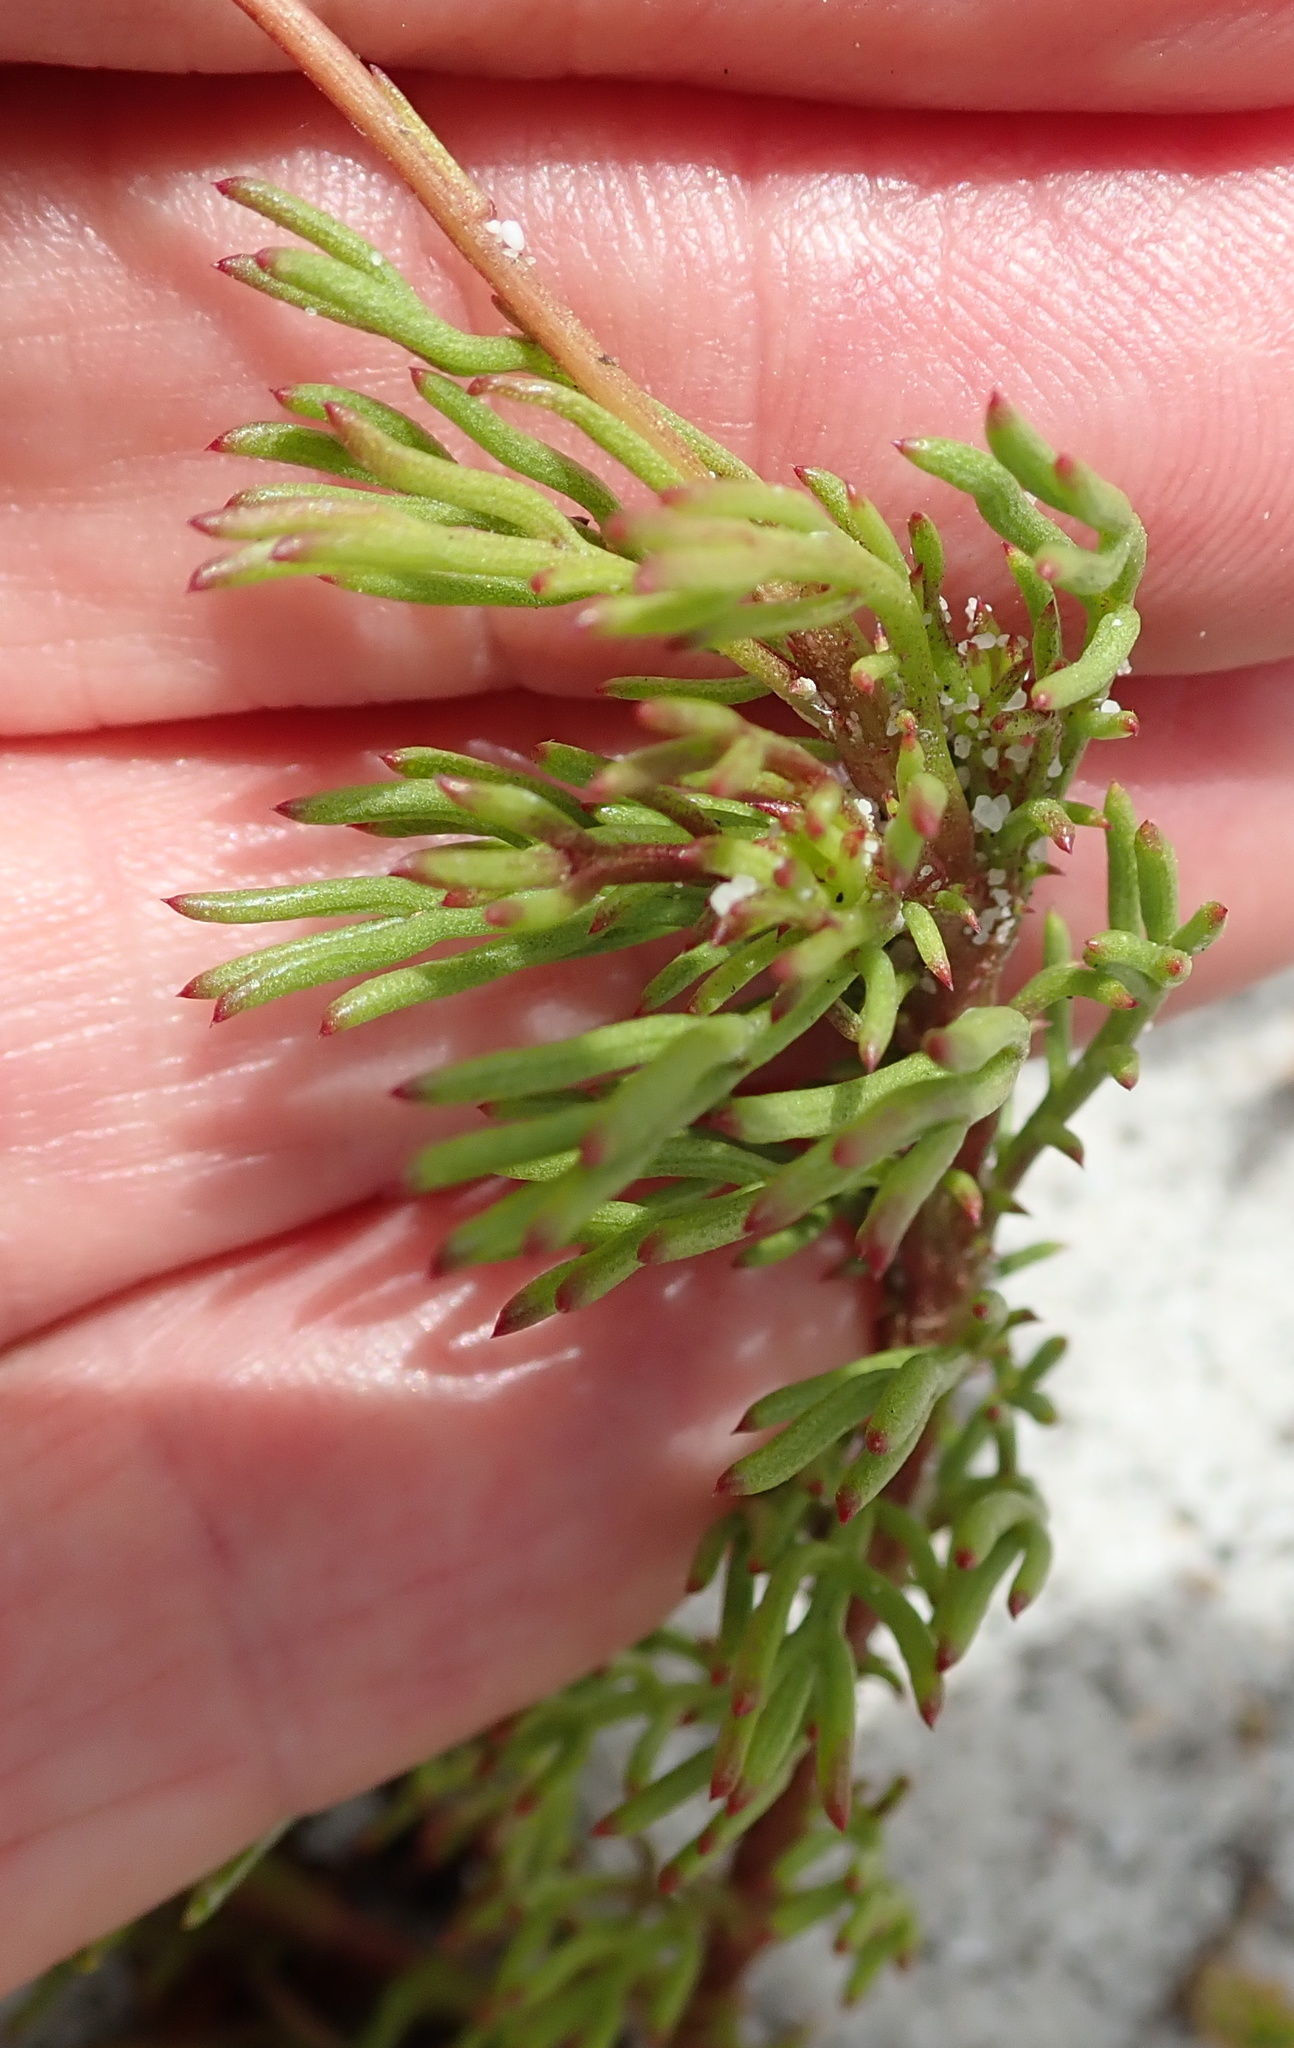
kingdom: Plantae
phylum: Tracheophyta
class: Magnoliopsida
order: Asterales
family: Asteraceae
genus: Ursinia
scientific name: Ursinia paleacea
